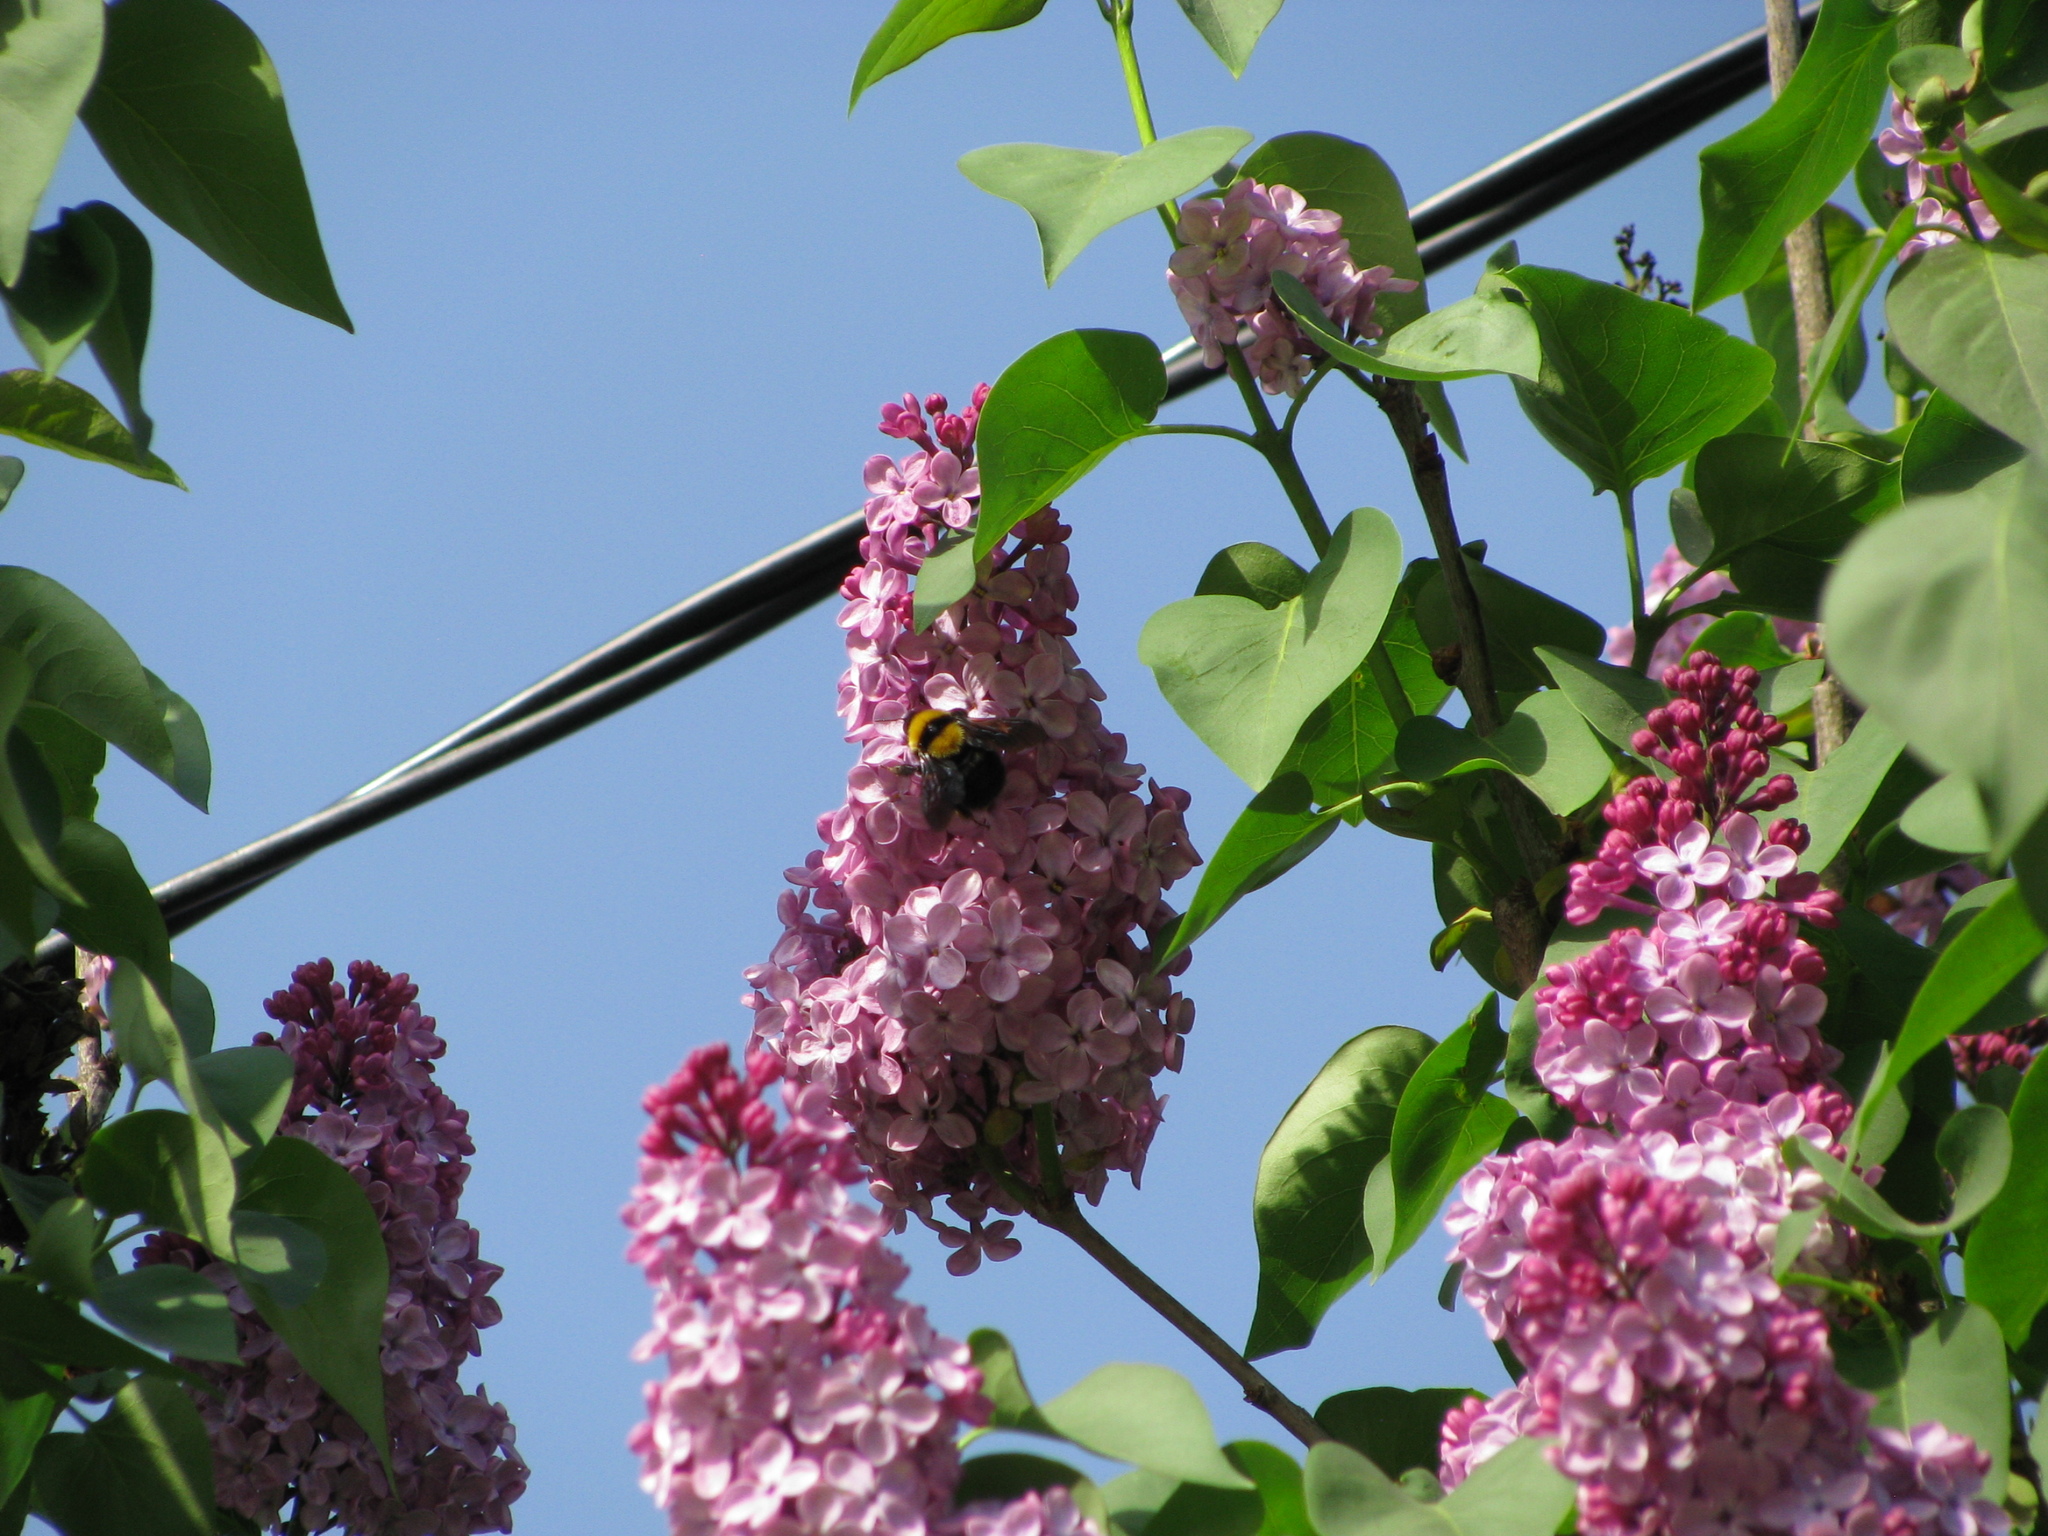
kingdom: Animalia
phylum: Arthropoda
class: Insecta
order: Hymenoptera
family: Apidae
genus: Bombus
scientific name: Bombus argillaceus
